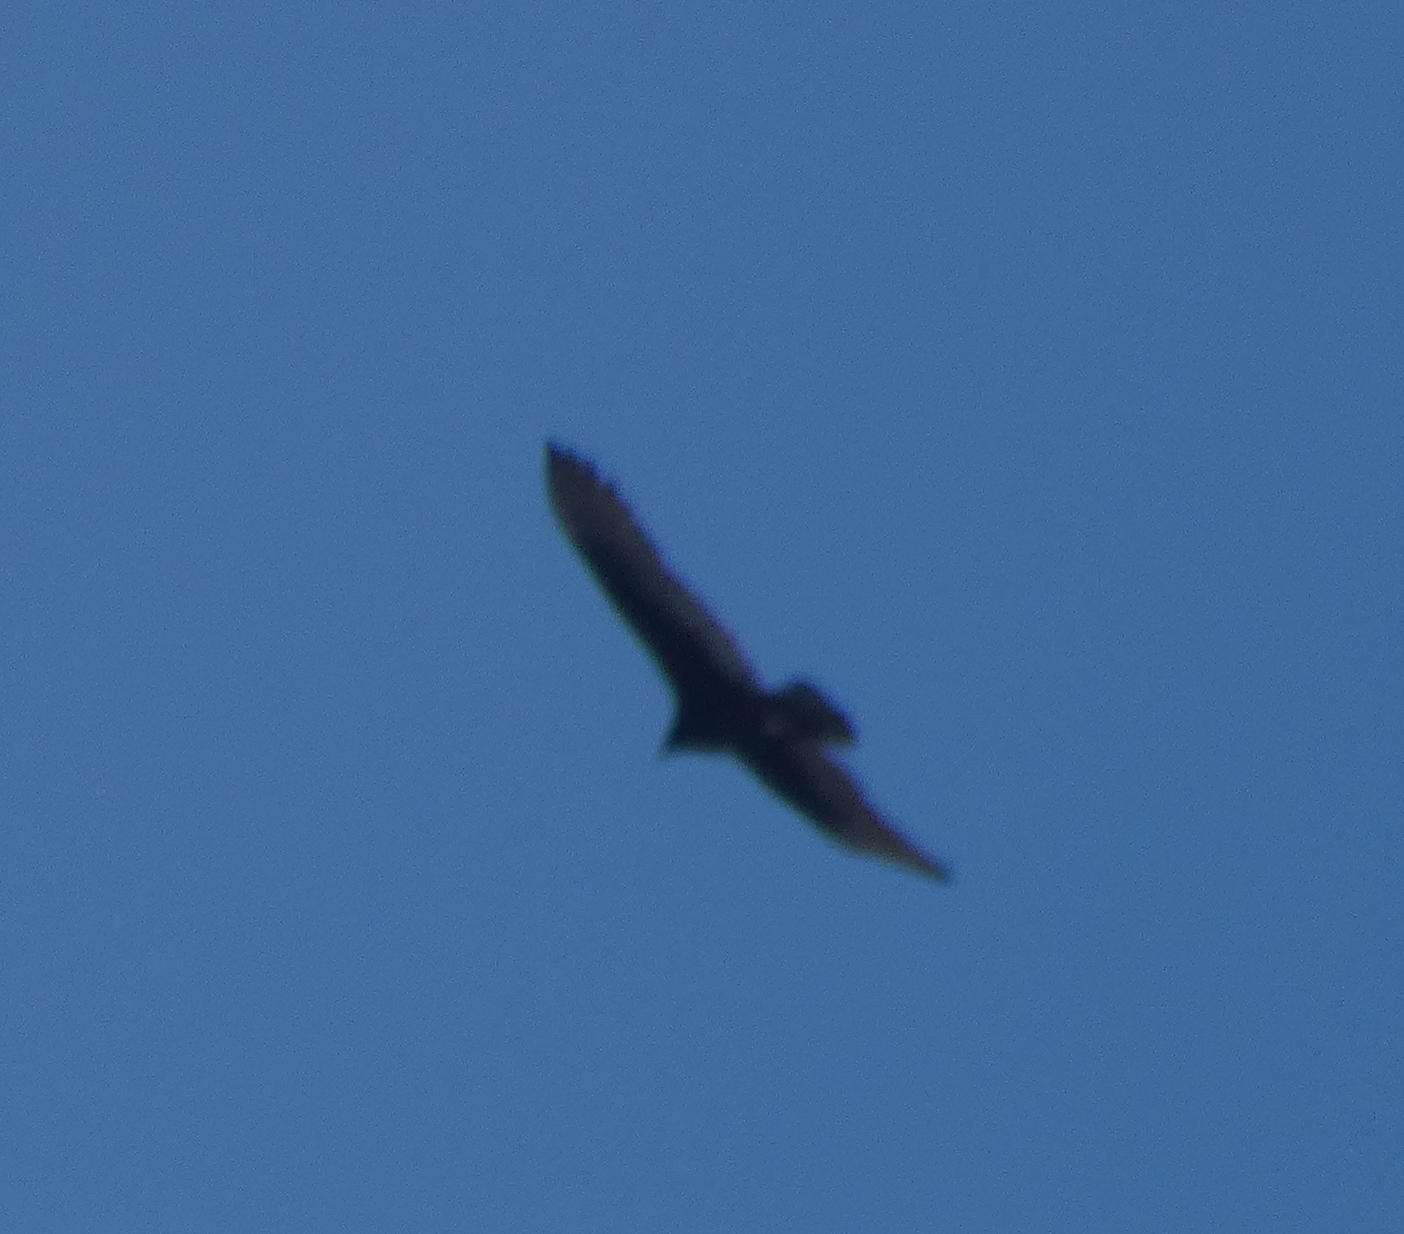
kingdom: Animalia
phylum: Chordata
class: Aves
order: Accipitriformes
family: Cathartidae
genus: Cathartes
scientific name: Cathartes aura
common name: Turkey vulture
